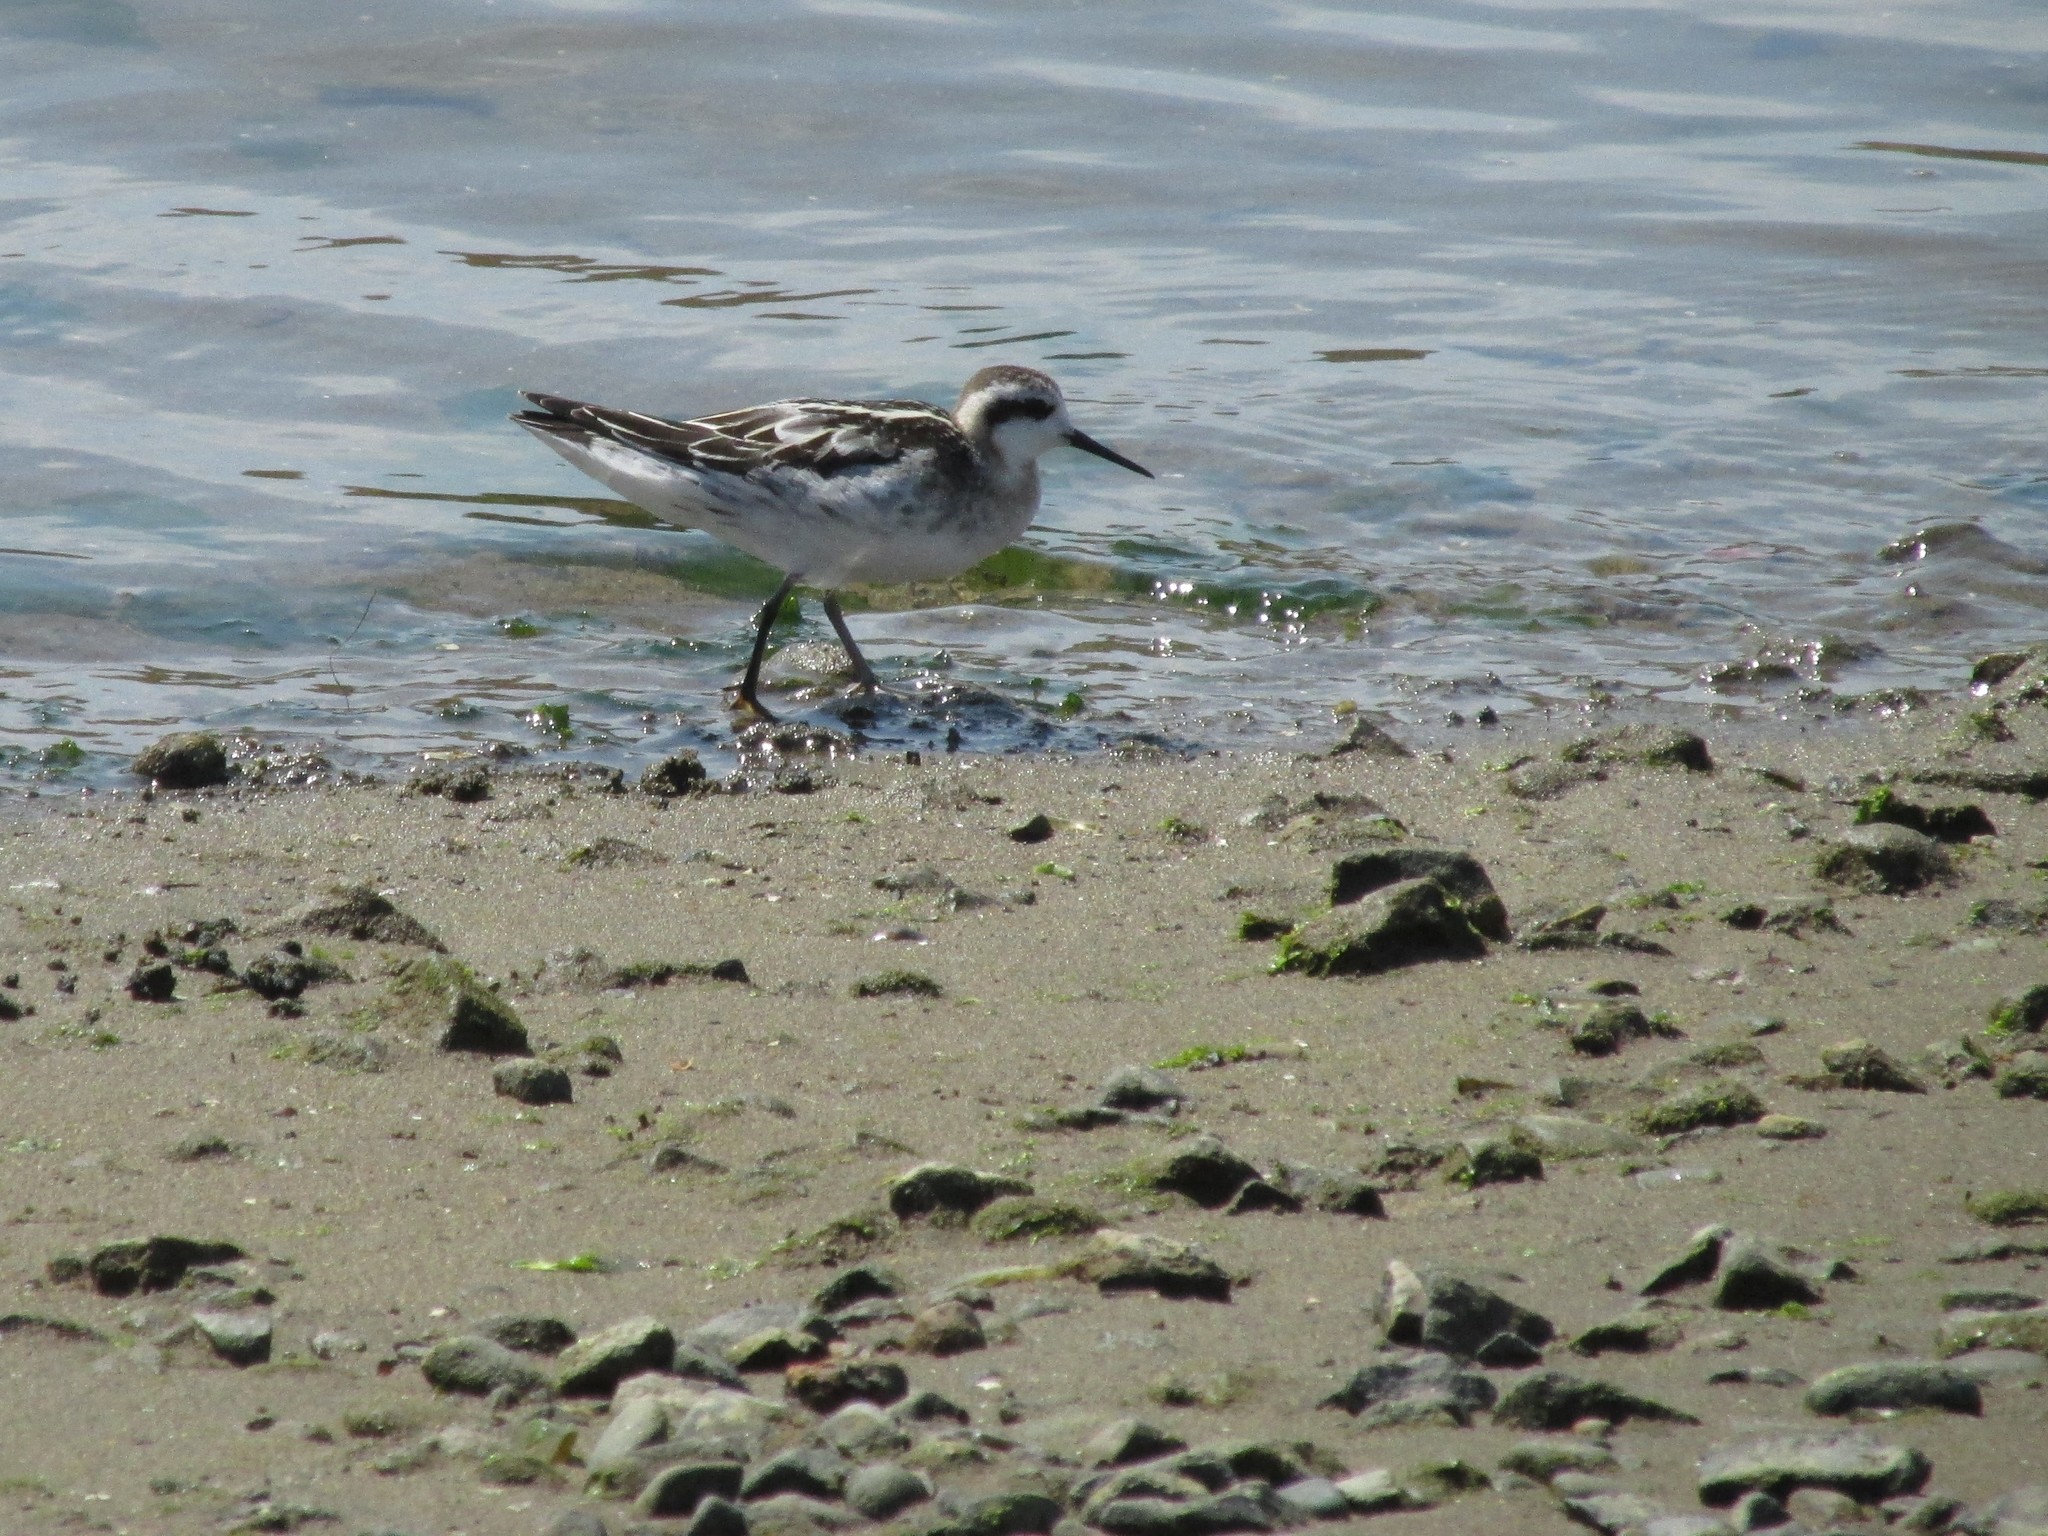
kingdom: Animalia
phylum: Chordata
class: Aves
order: Charadriiformes
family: Scolopacidae
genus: Phalaropus
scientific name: Phalaropus lobatus
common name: Red-necked phalarope
